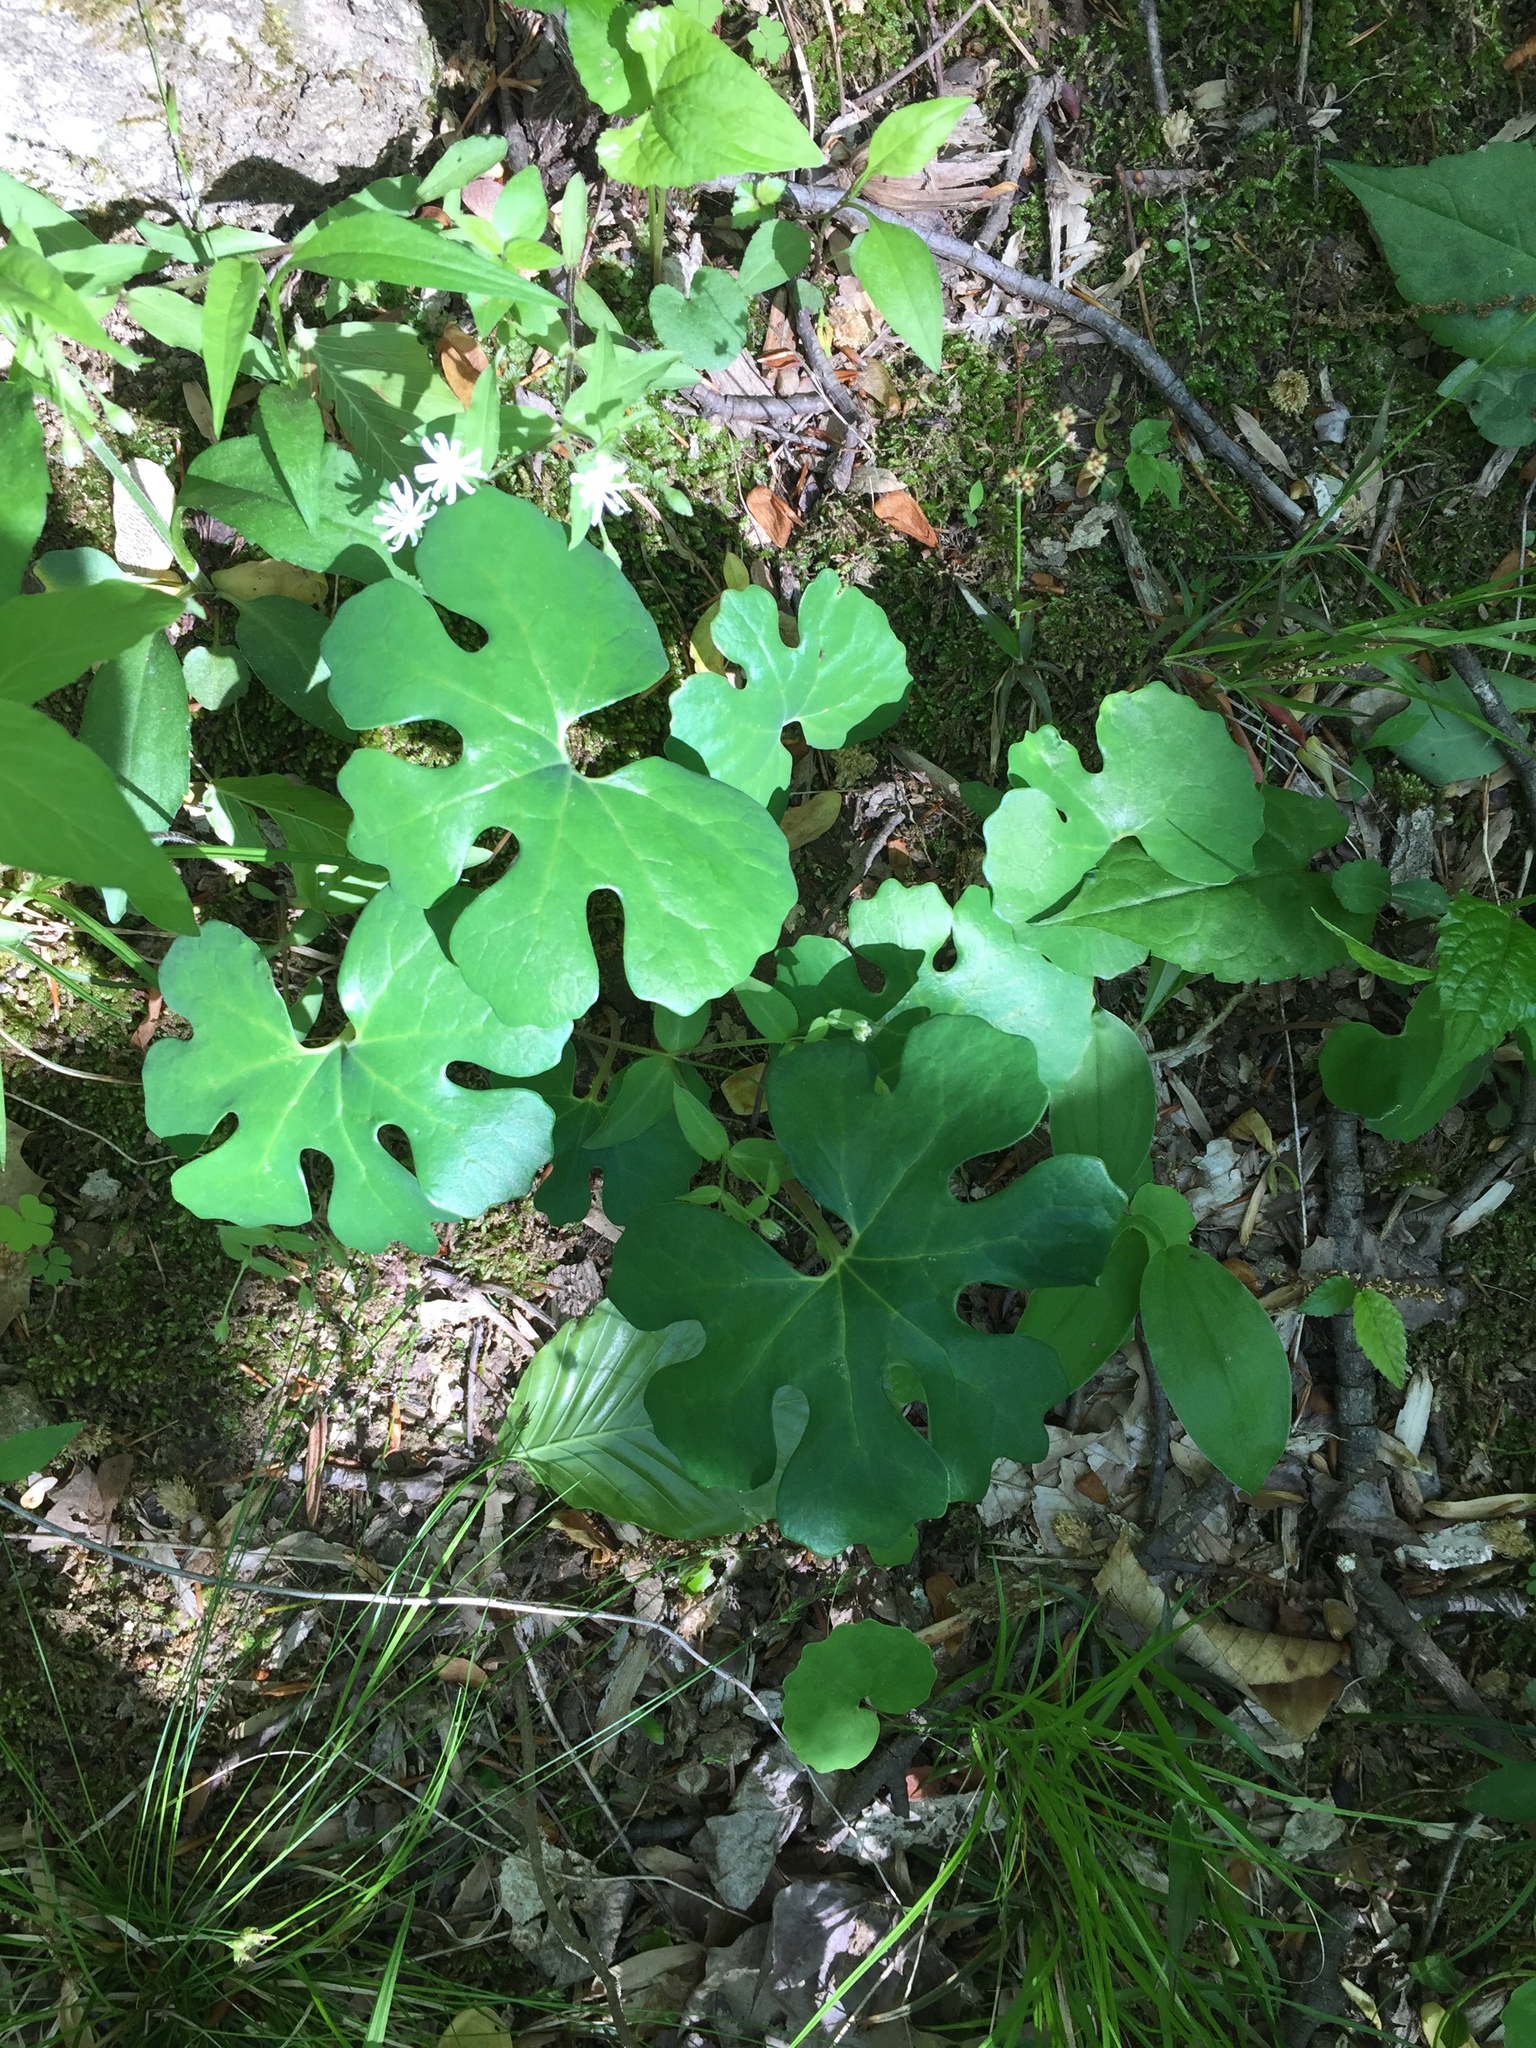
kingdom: Plantae
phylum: Tracheophyta
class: Magnoliopsida
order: Ranunculales
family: Papaveraceae
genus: Sanguinaria
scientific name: Sanguinaria canadensis
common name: Bloodroot
